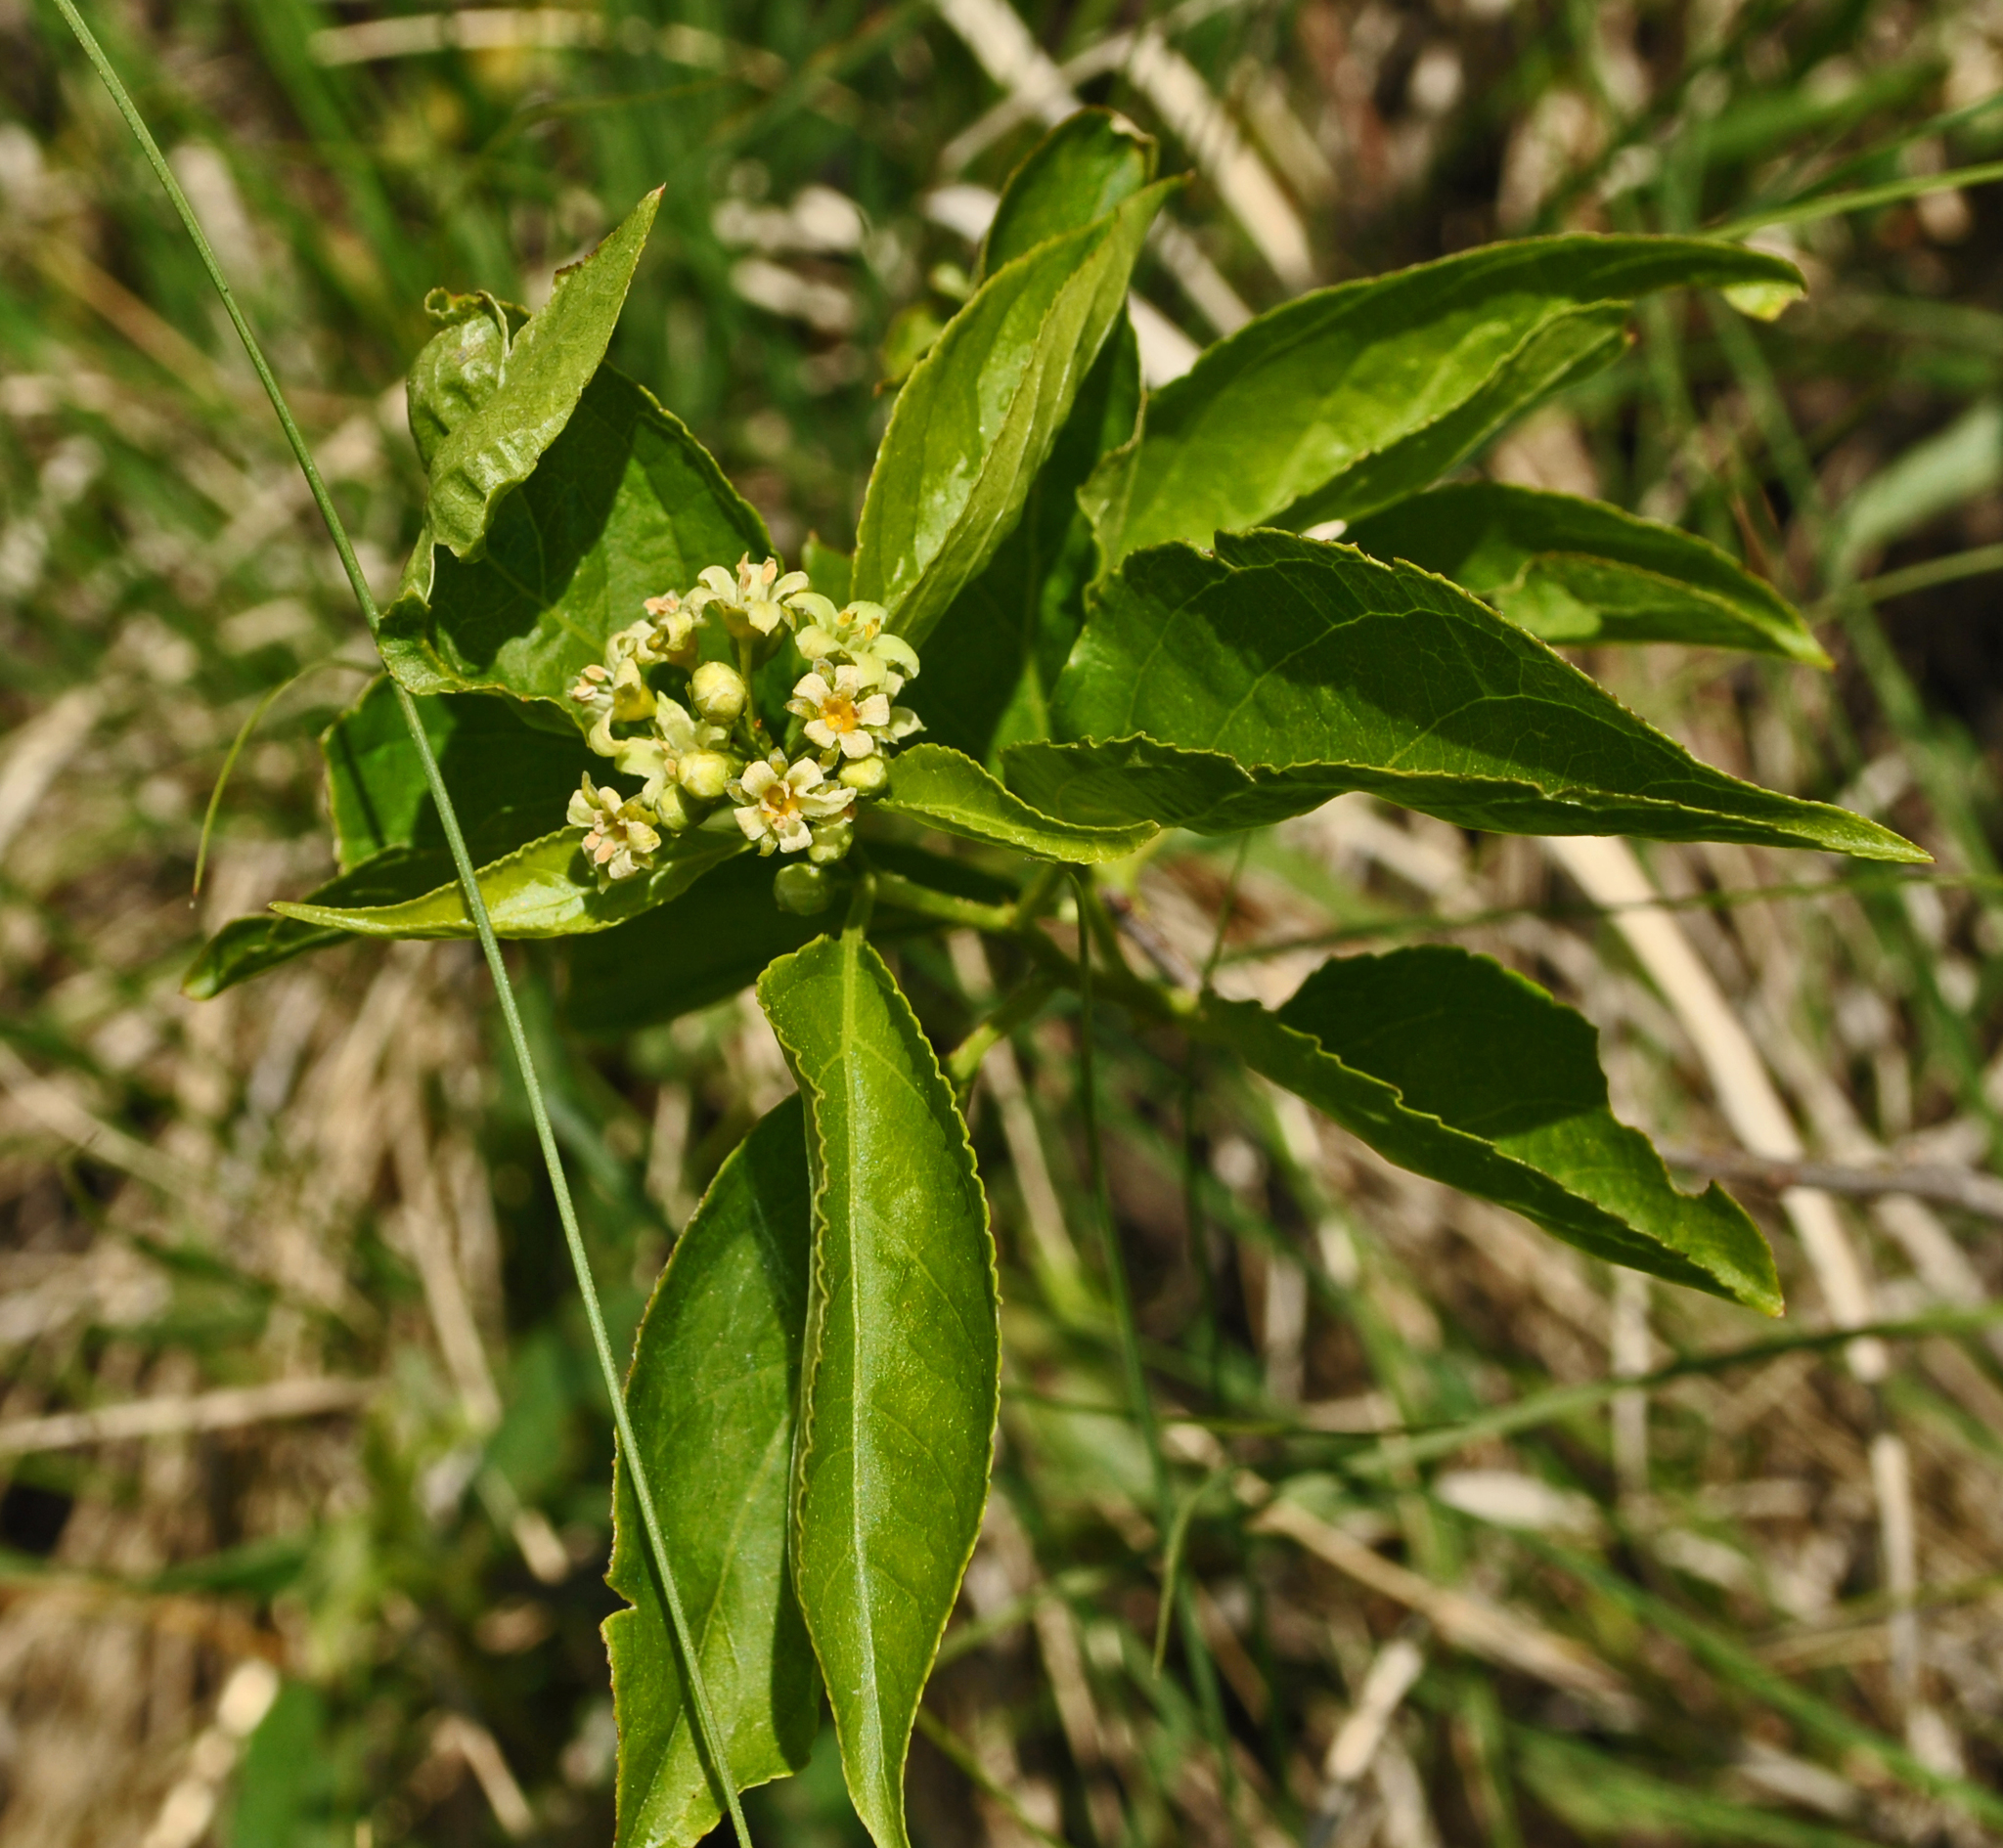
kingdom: Plantae
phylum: Tracheophyta
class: Magnoliopsida
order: Celastrales
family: Celastraceae
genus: Celastrus
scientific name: Celastrus scandens
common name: American bittersweet
